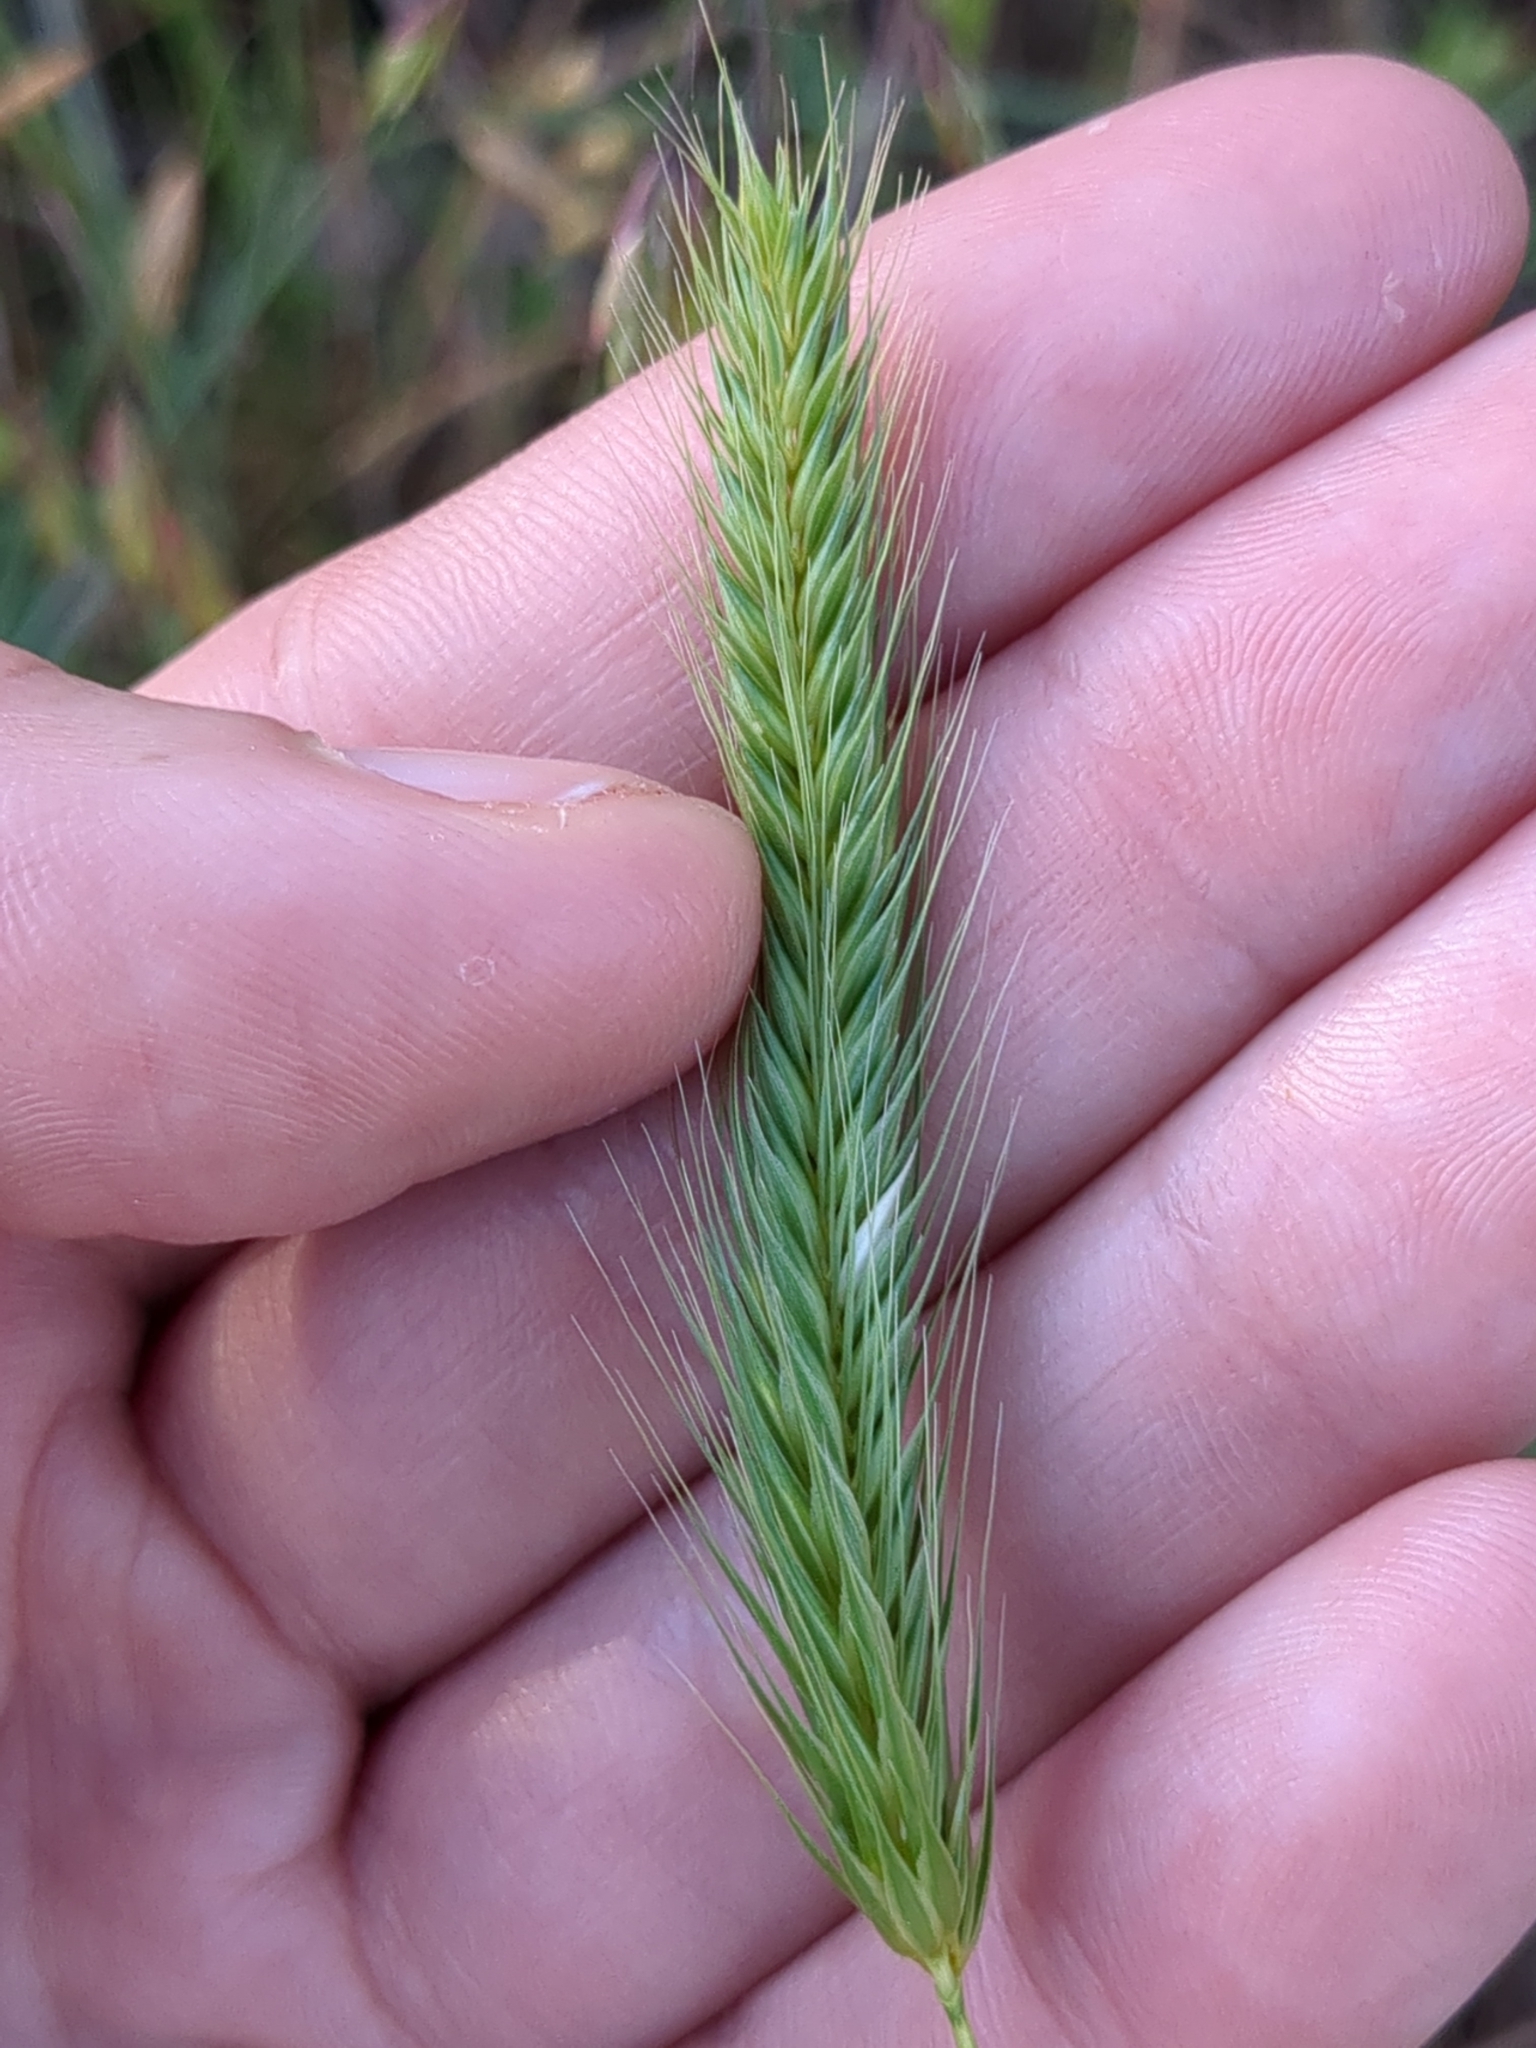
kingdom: Plantae
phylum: Tracheophyta
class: Liliopsida
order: Poales
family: Poaceae
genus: Hordeum
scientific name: Hordeum pusillum
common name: Little barley
